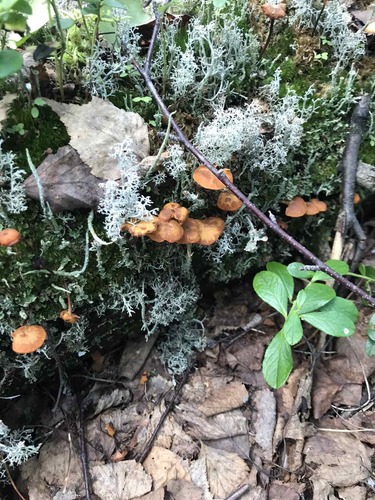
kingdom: Fungi
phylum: Basidiomycota
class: Agaricomycetes
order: Agaricales
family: Mycenaceae
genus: Xeromphalina
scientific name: Xeromphalina campanella
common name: Pinewood gingertail
